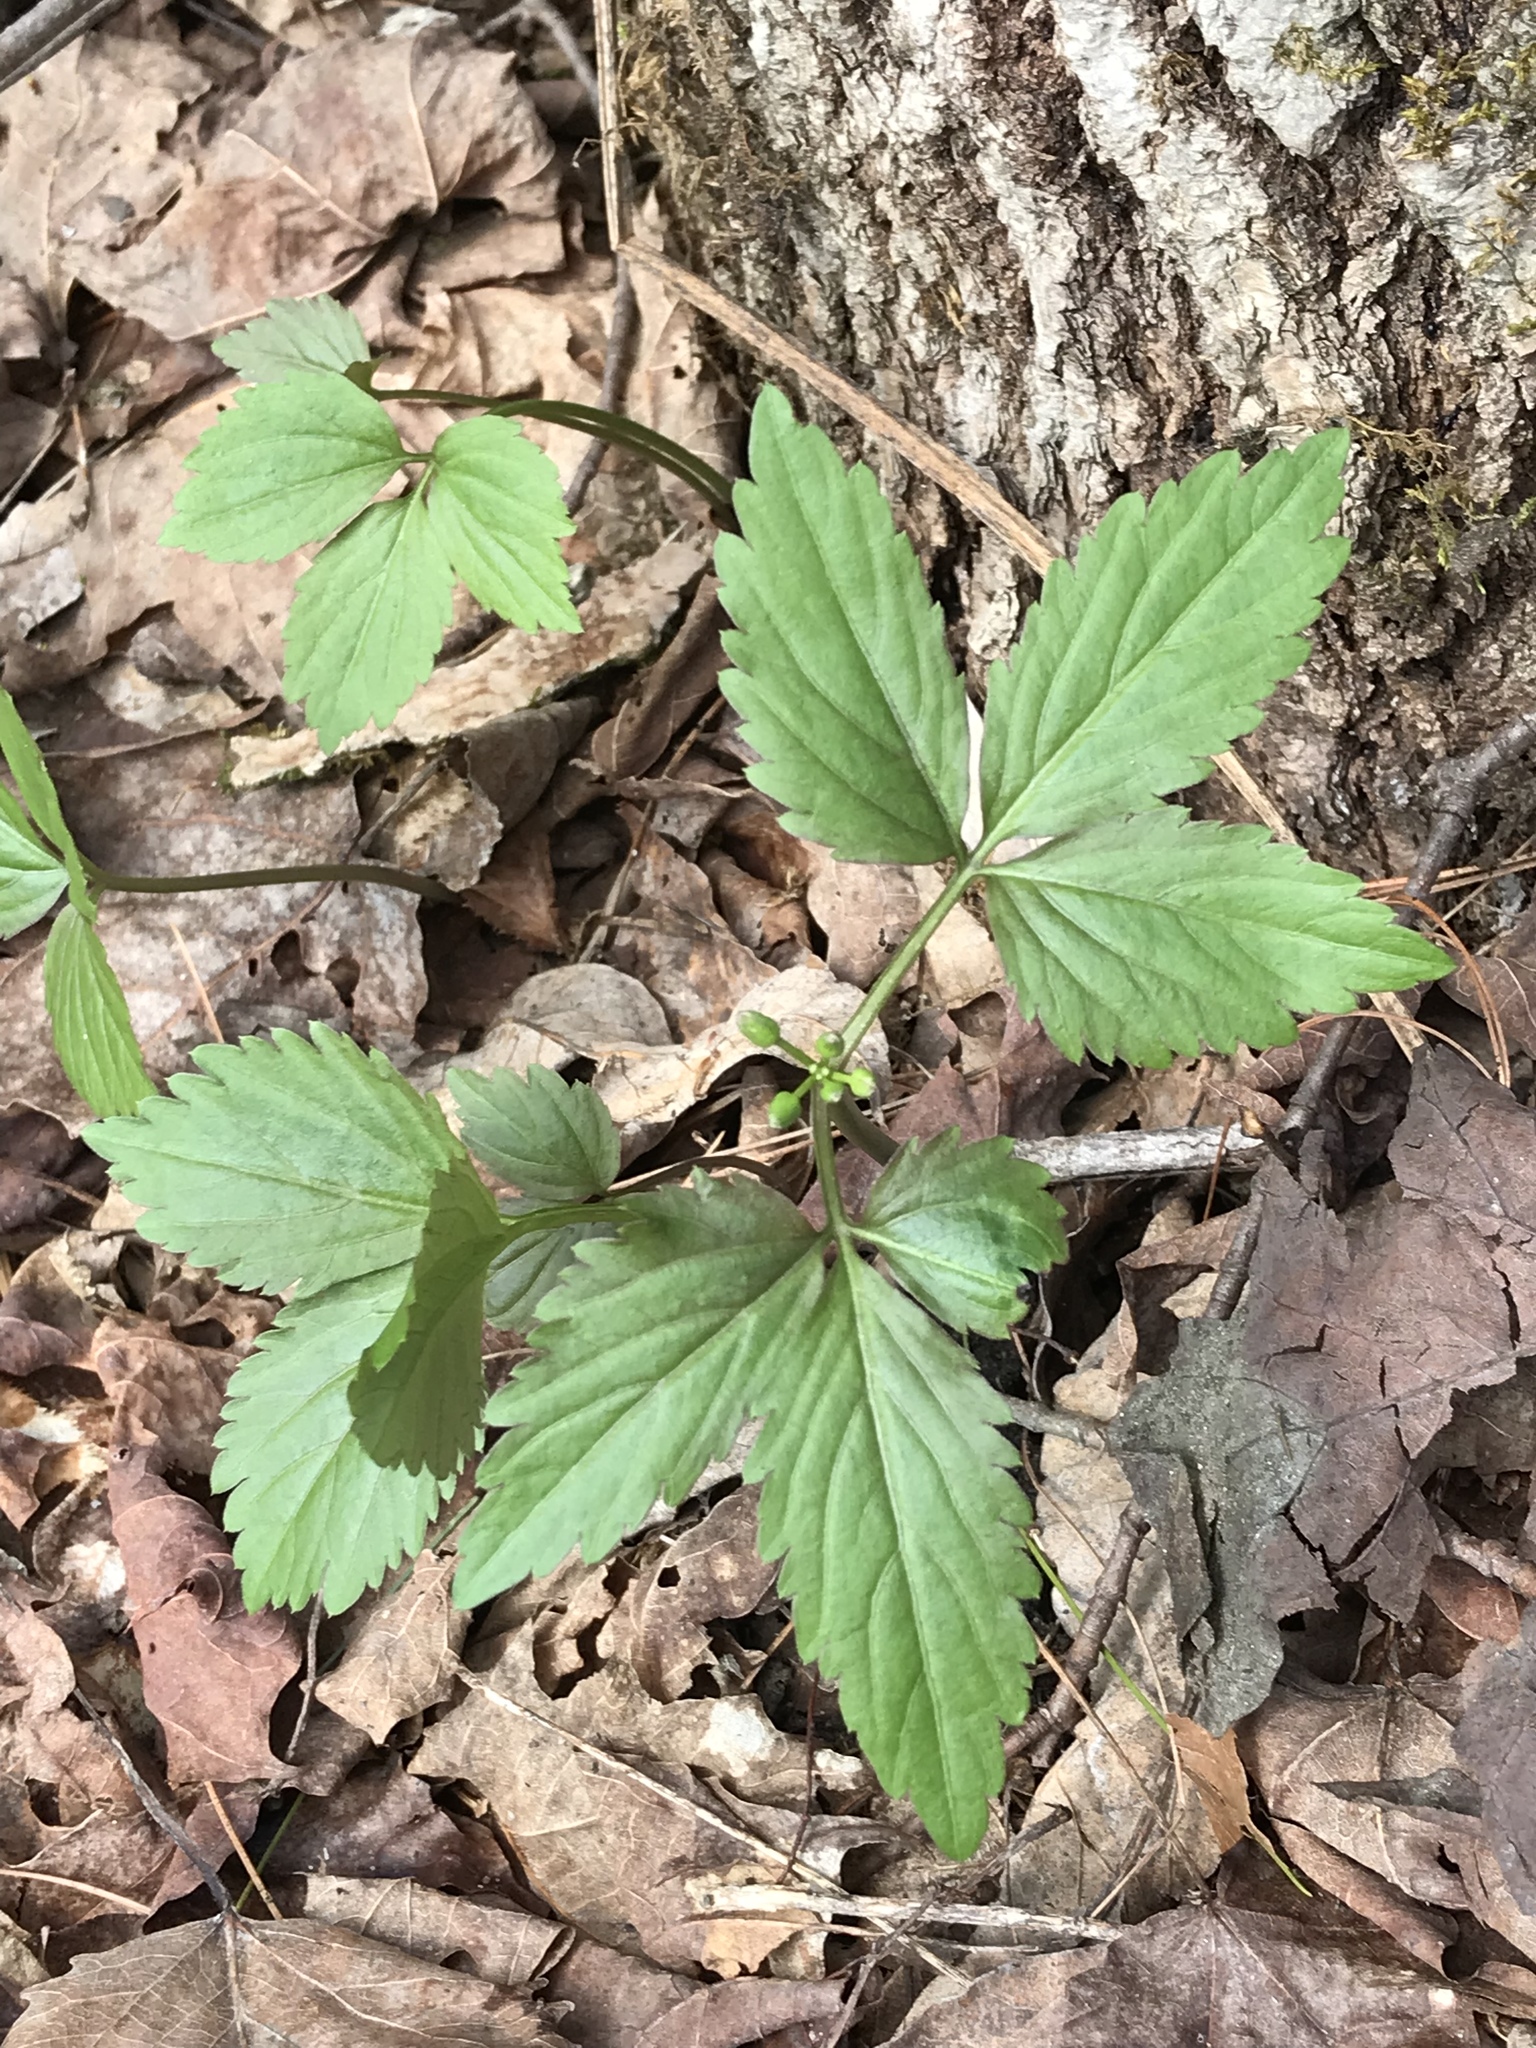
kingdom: Plantae
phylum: Tracheophyta
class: Magnoliopsida
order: Brassicales
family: Brassicaceae
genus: Cardamine
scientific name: Cardamine diphylla
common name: Broad-leaved toothwort
